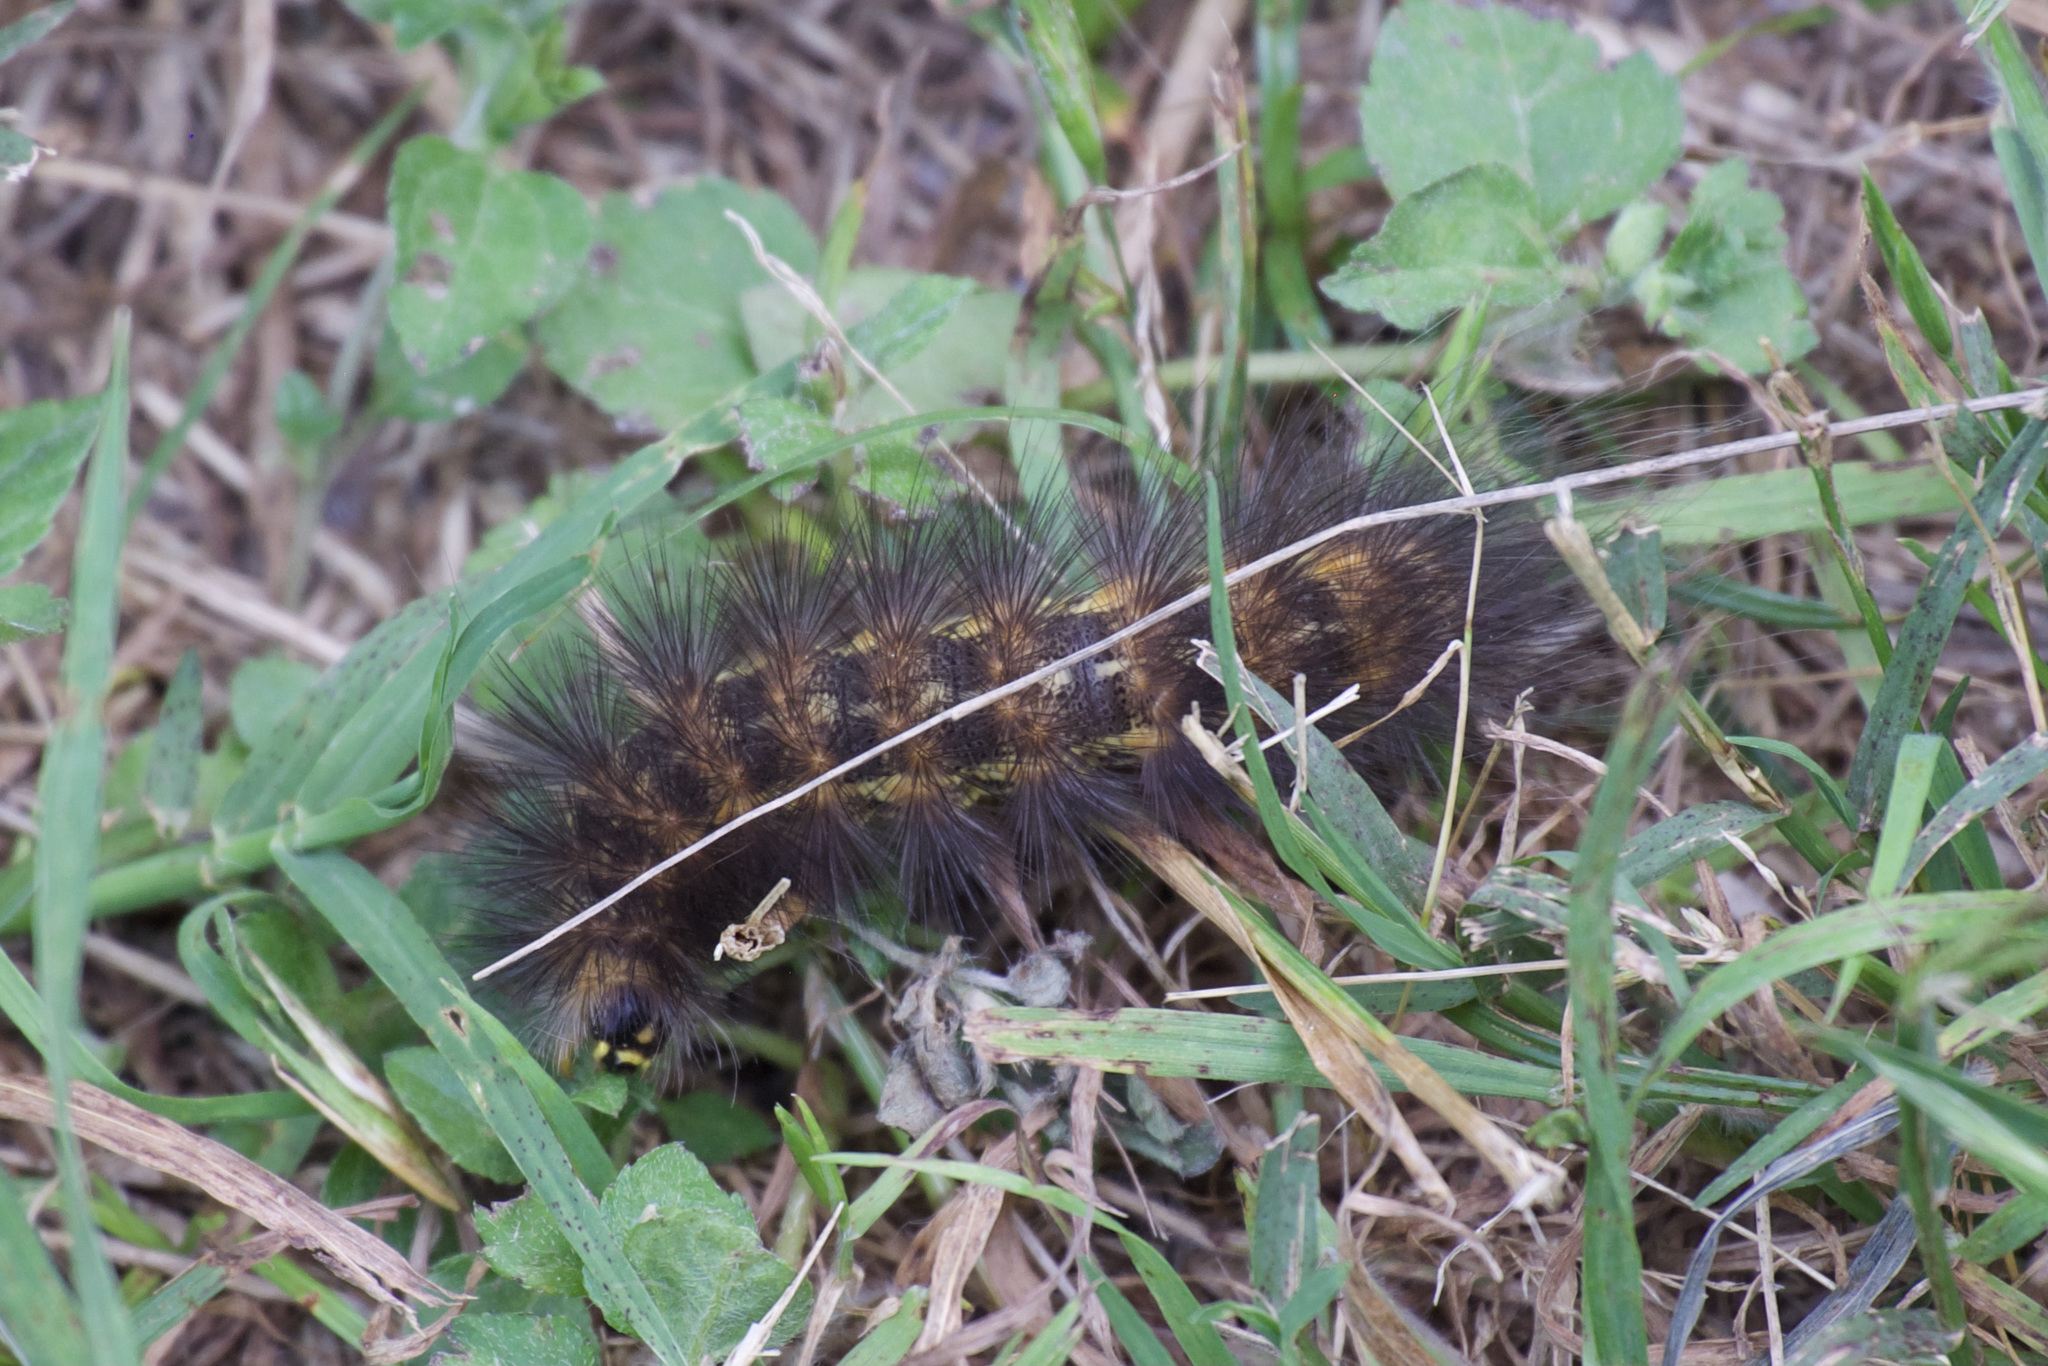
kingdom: Animalia
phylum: Arthropoda
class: Insecta
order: Lepidoptera
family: Erebidae
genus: Estigmene
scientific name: Estigmene acrea
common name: Salt marsh moth
